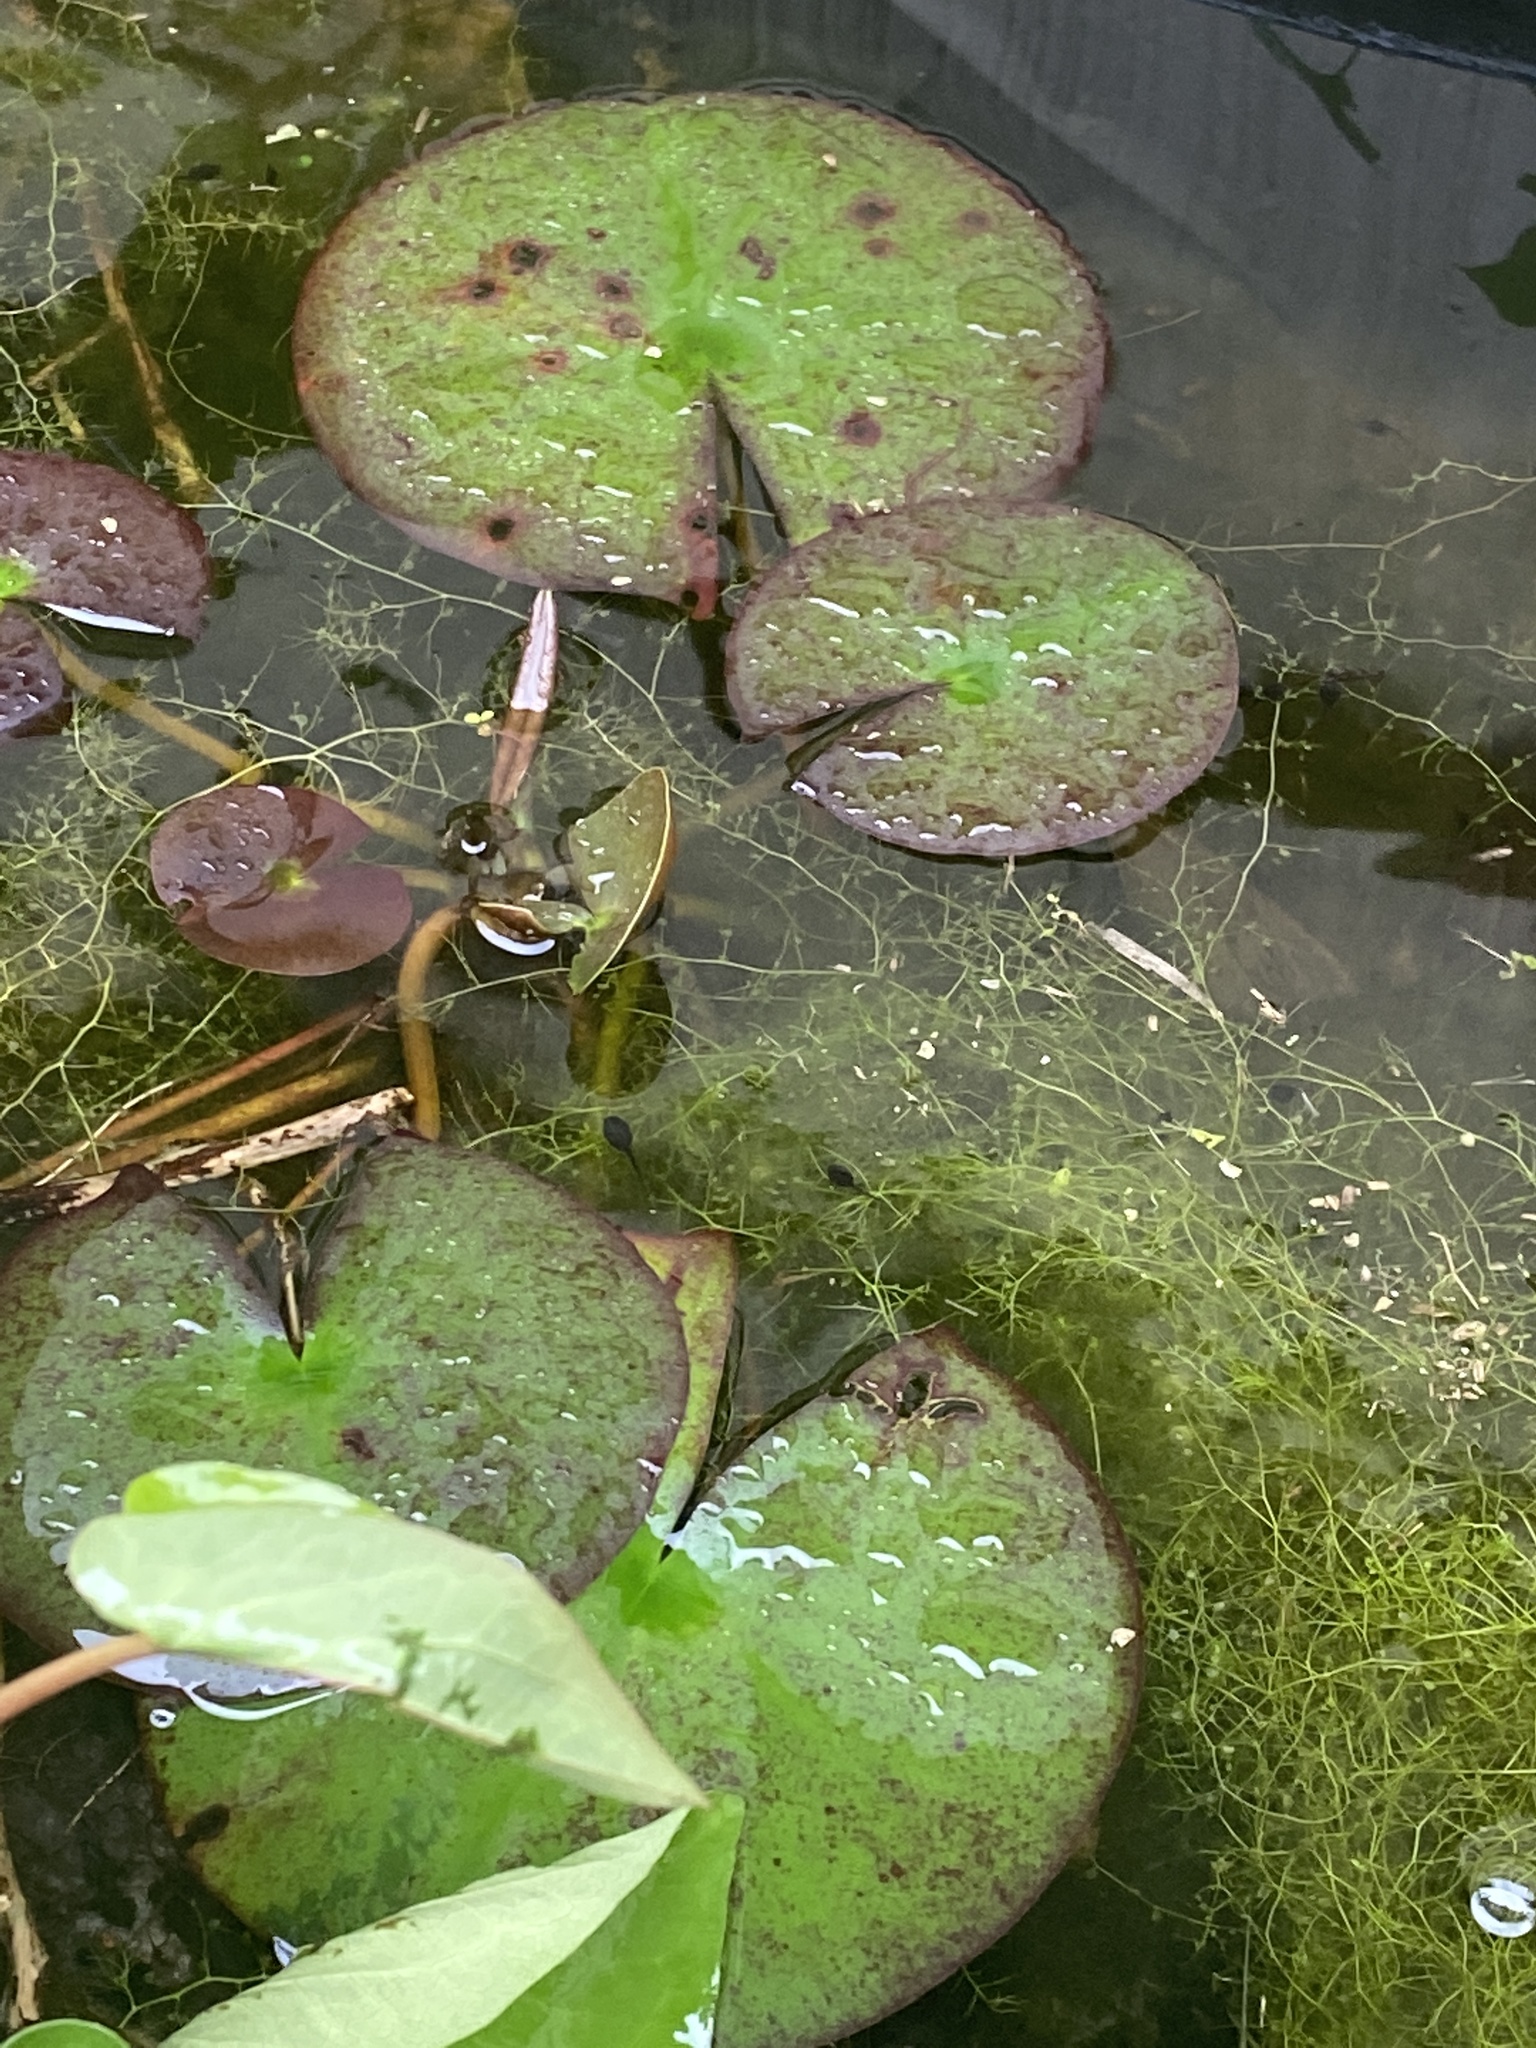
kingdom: Plantae
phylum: Tracheophyta
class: Magnoliopsida
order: Nymphaeales
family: Nymphaeaceae
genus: Nymphaea
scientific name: Nymphaea odorata
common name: Fragrant water-lily
